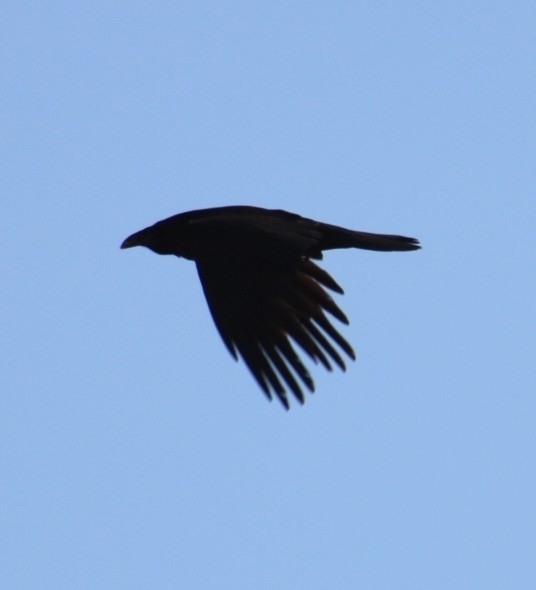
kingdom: Animalia
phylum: Chordata
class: Aves
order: Passeriformes
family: Corvidae
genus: Corvus
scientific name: Corvus corax
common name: Common raven
